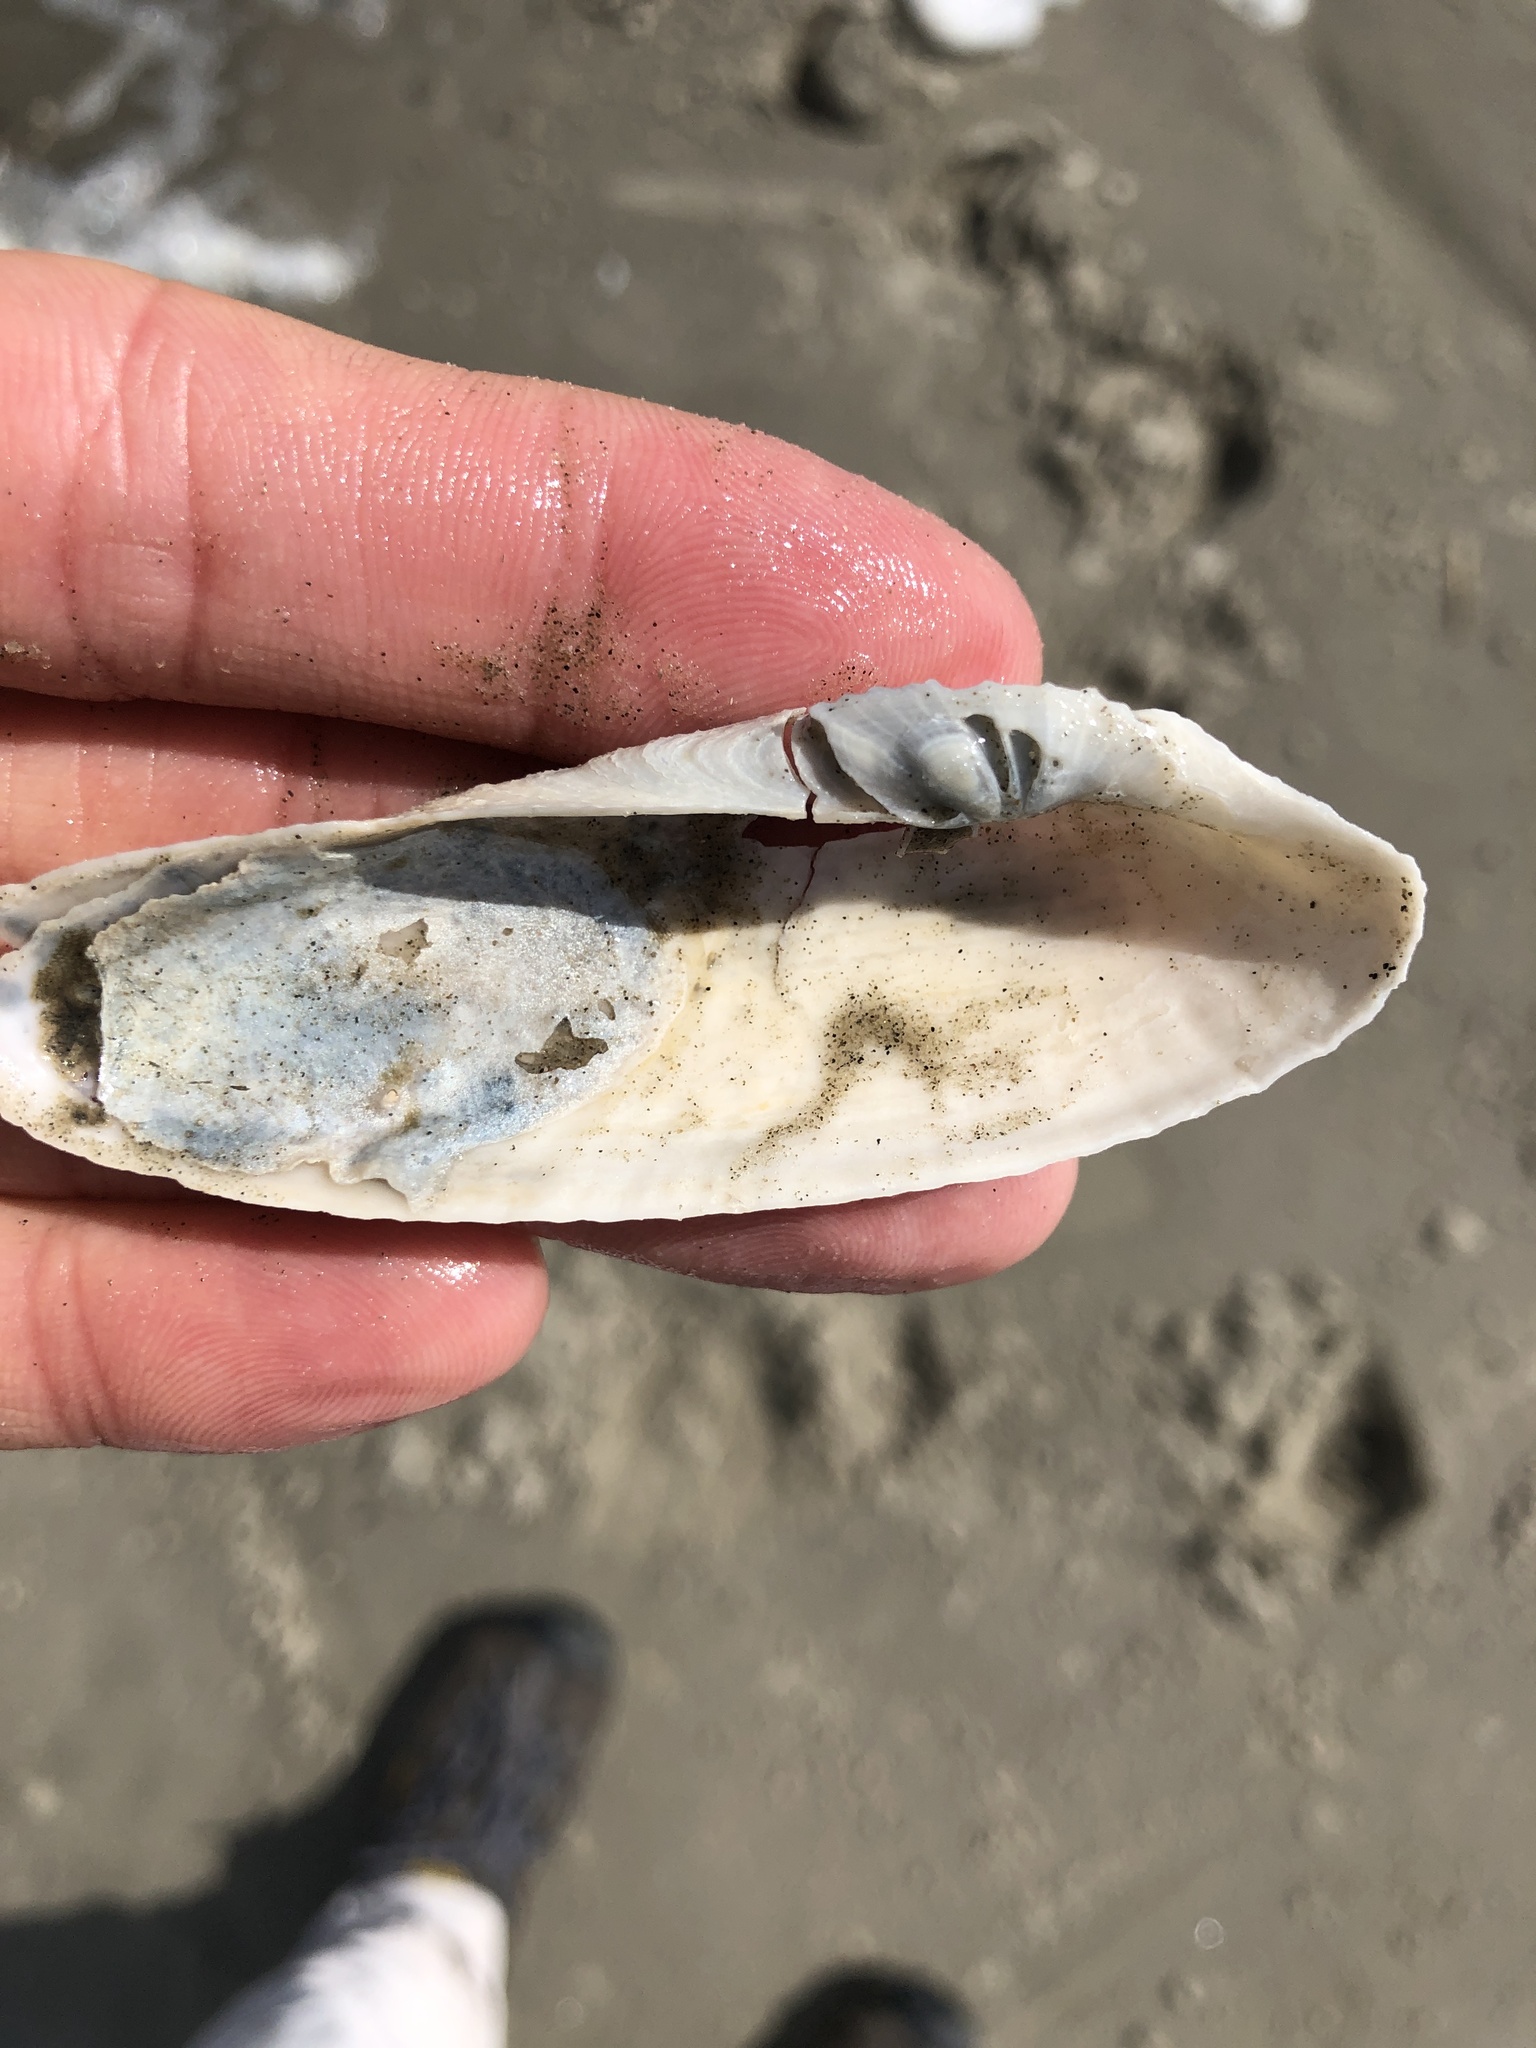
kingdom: Animalia
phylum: Mollusca
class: Bivalvia
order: Myida
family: Pholadidae
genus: Pholas
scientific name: Pholas campechiensis
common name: Campeche angel wing
